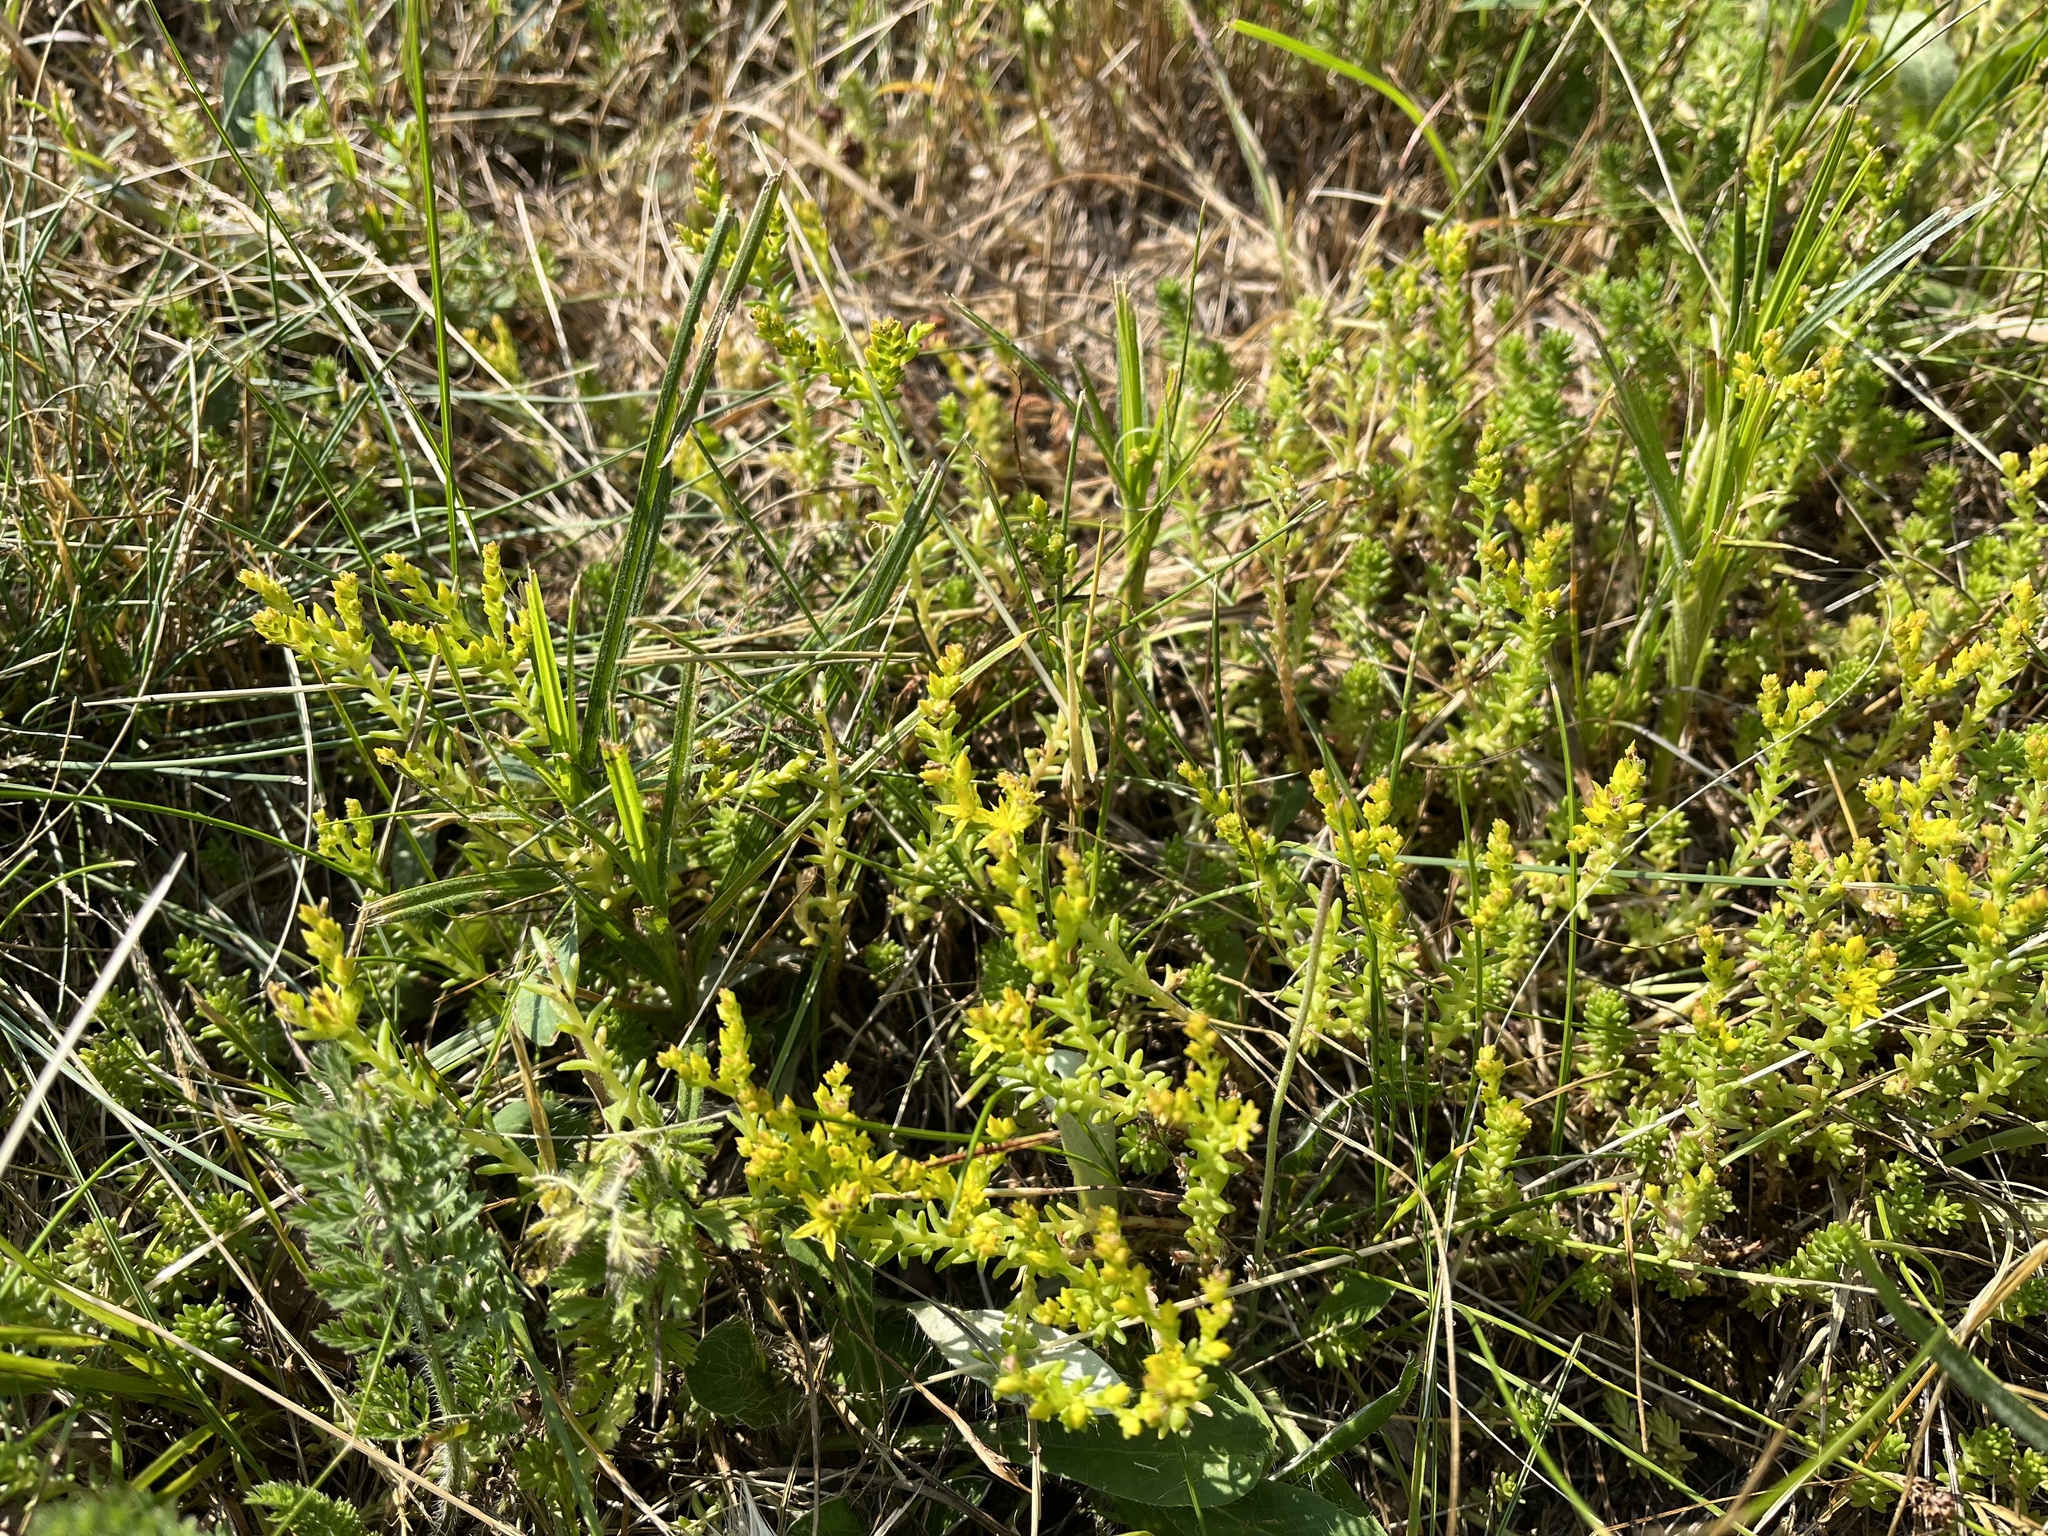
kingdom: Plantae
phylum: Tracheophyta
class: Magnoliopsida
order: Saxifragales
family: Crassulaceae
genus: Sedum
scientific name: Sedum sexangulare
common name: Tasteless stonecrop
